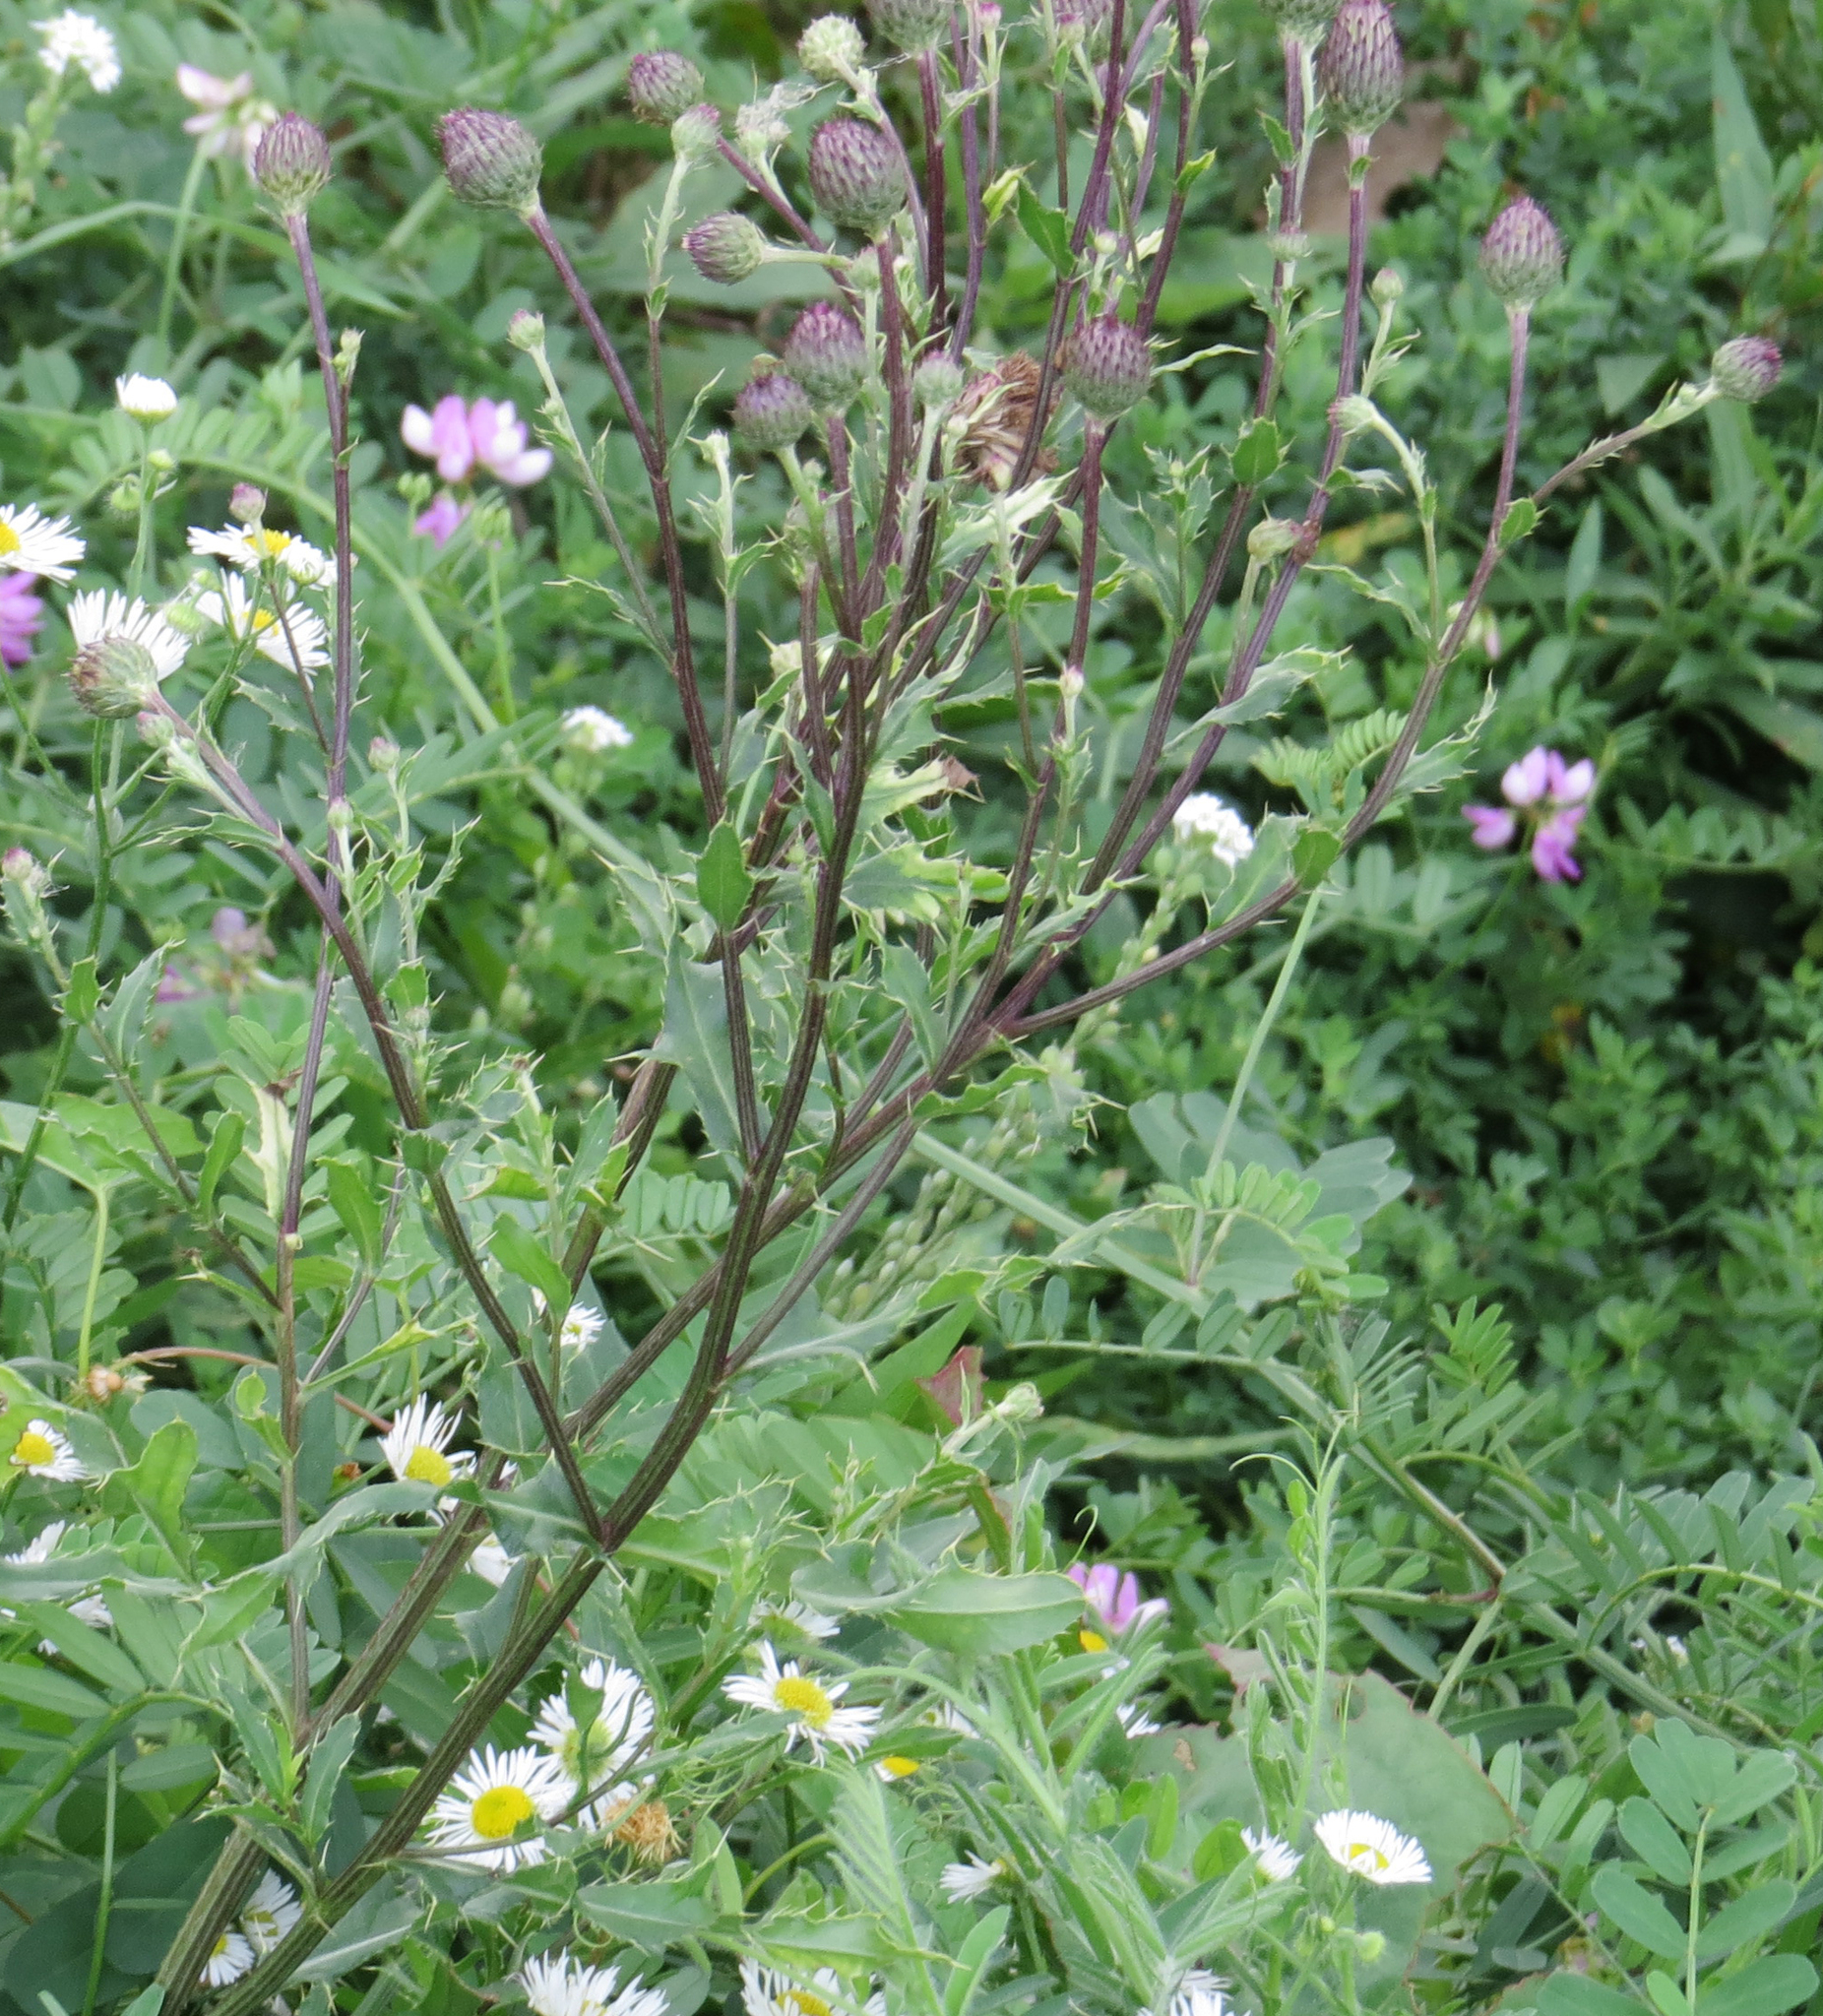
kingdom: Plantae
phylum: Tracheophyta
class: Magnoliopsida
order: Asterales
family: Asteraceae
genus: Cirsium
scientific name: Cirsium arvense
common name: Creeping thistle
